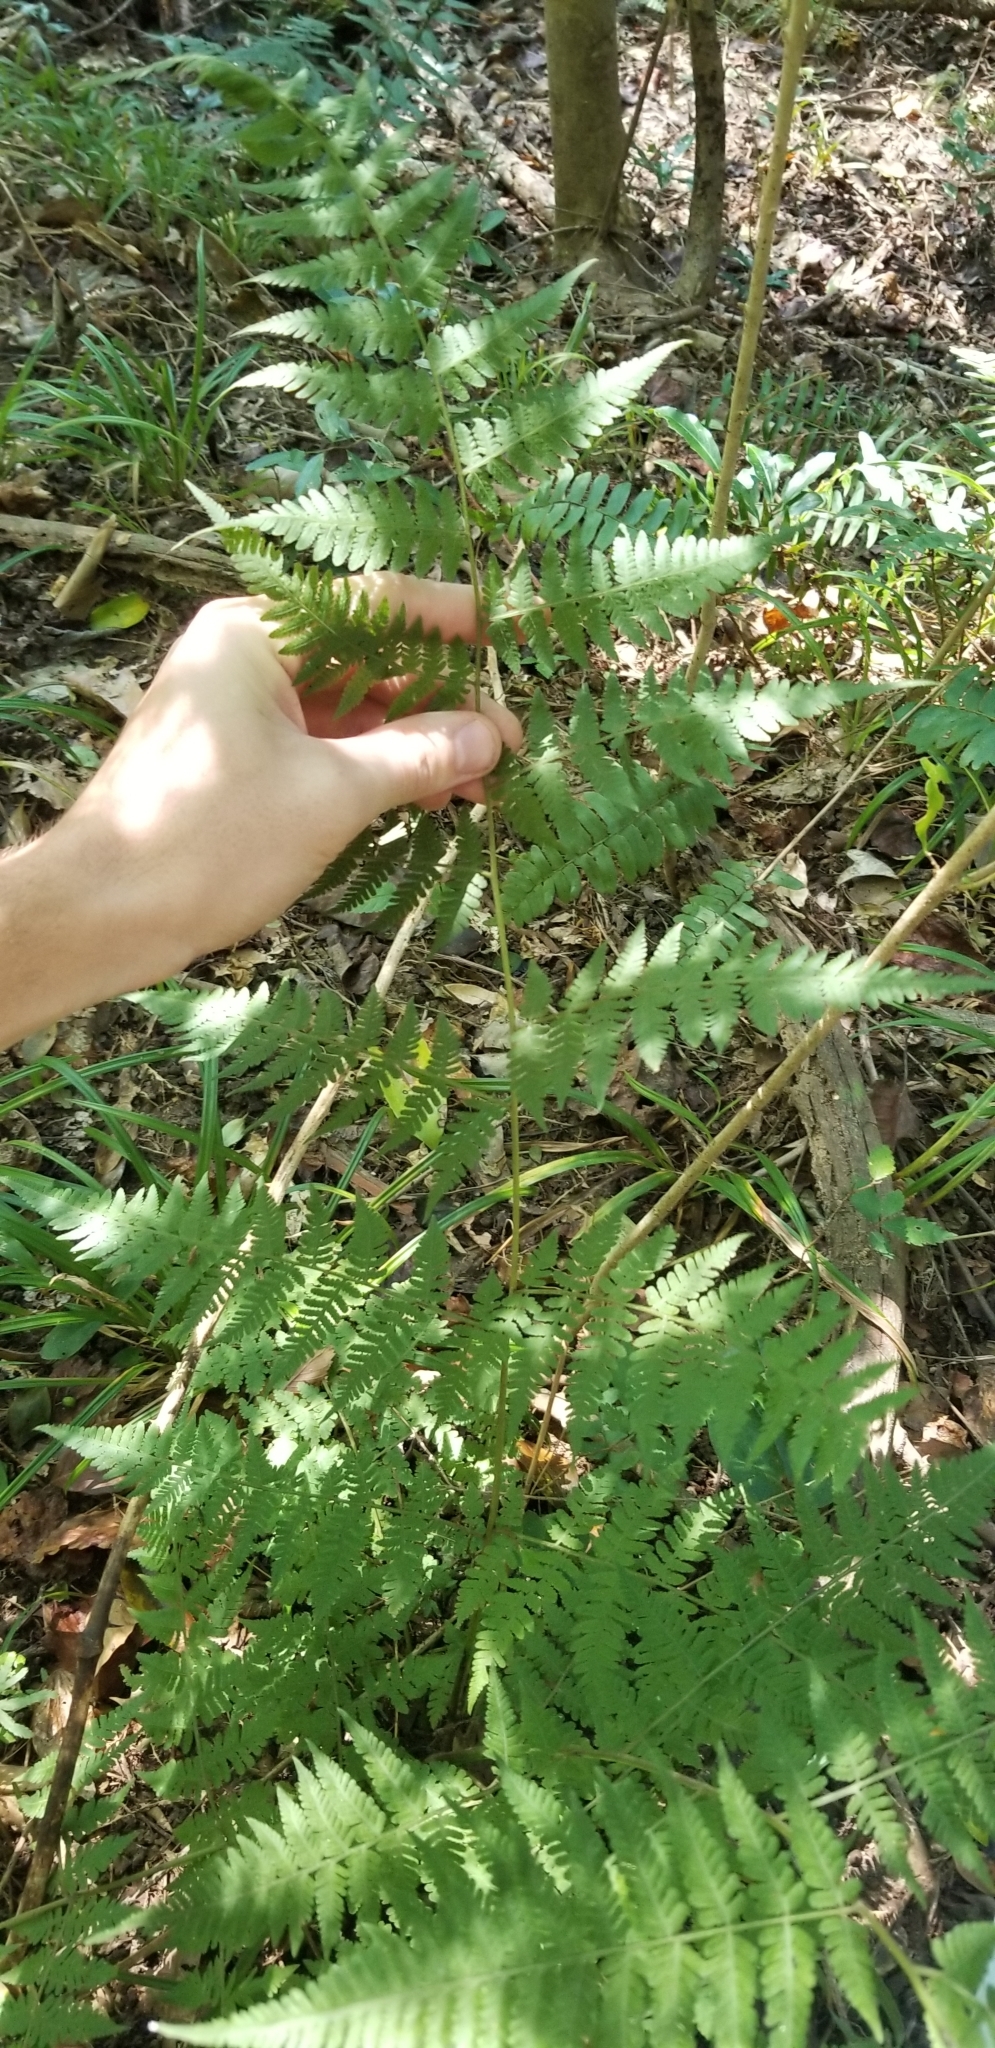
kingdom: Plantae
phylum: Tracheophyta
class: Polypodiopsida
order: Polypodiales
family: Thelypteridaceae
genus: Macrothelypteris
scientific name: Macrothelypteris torresiana
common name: Swordfern
